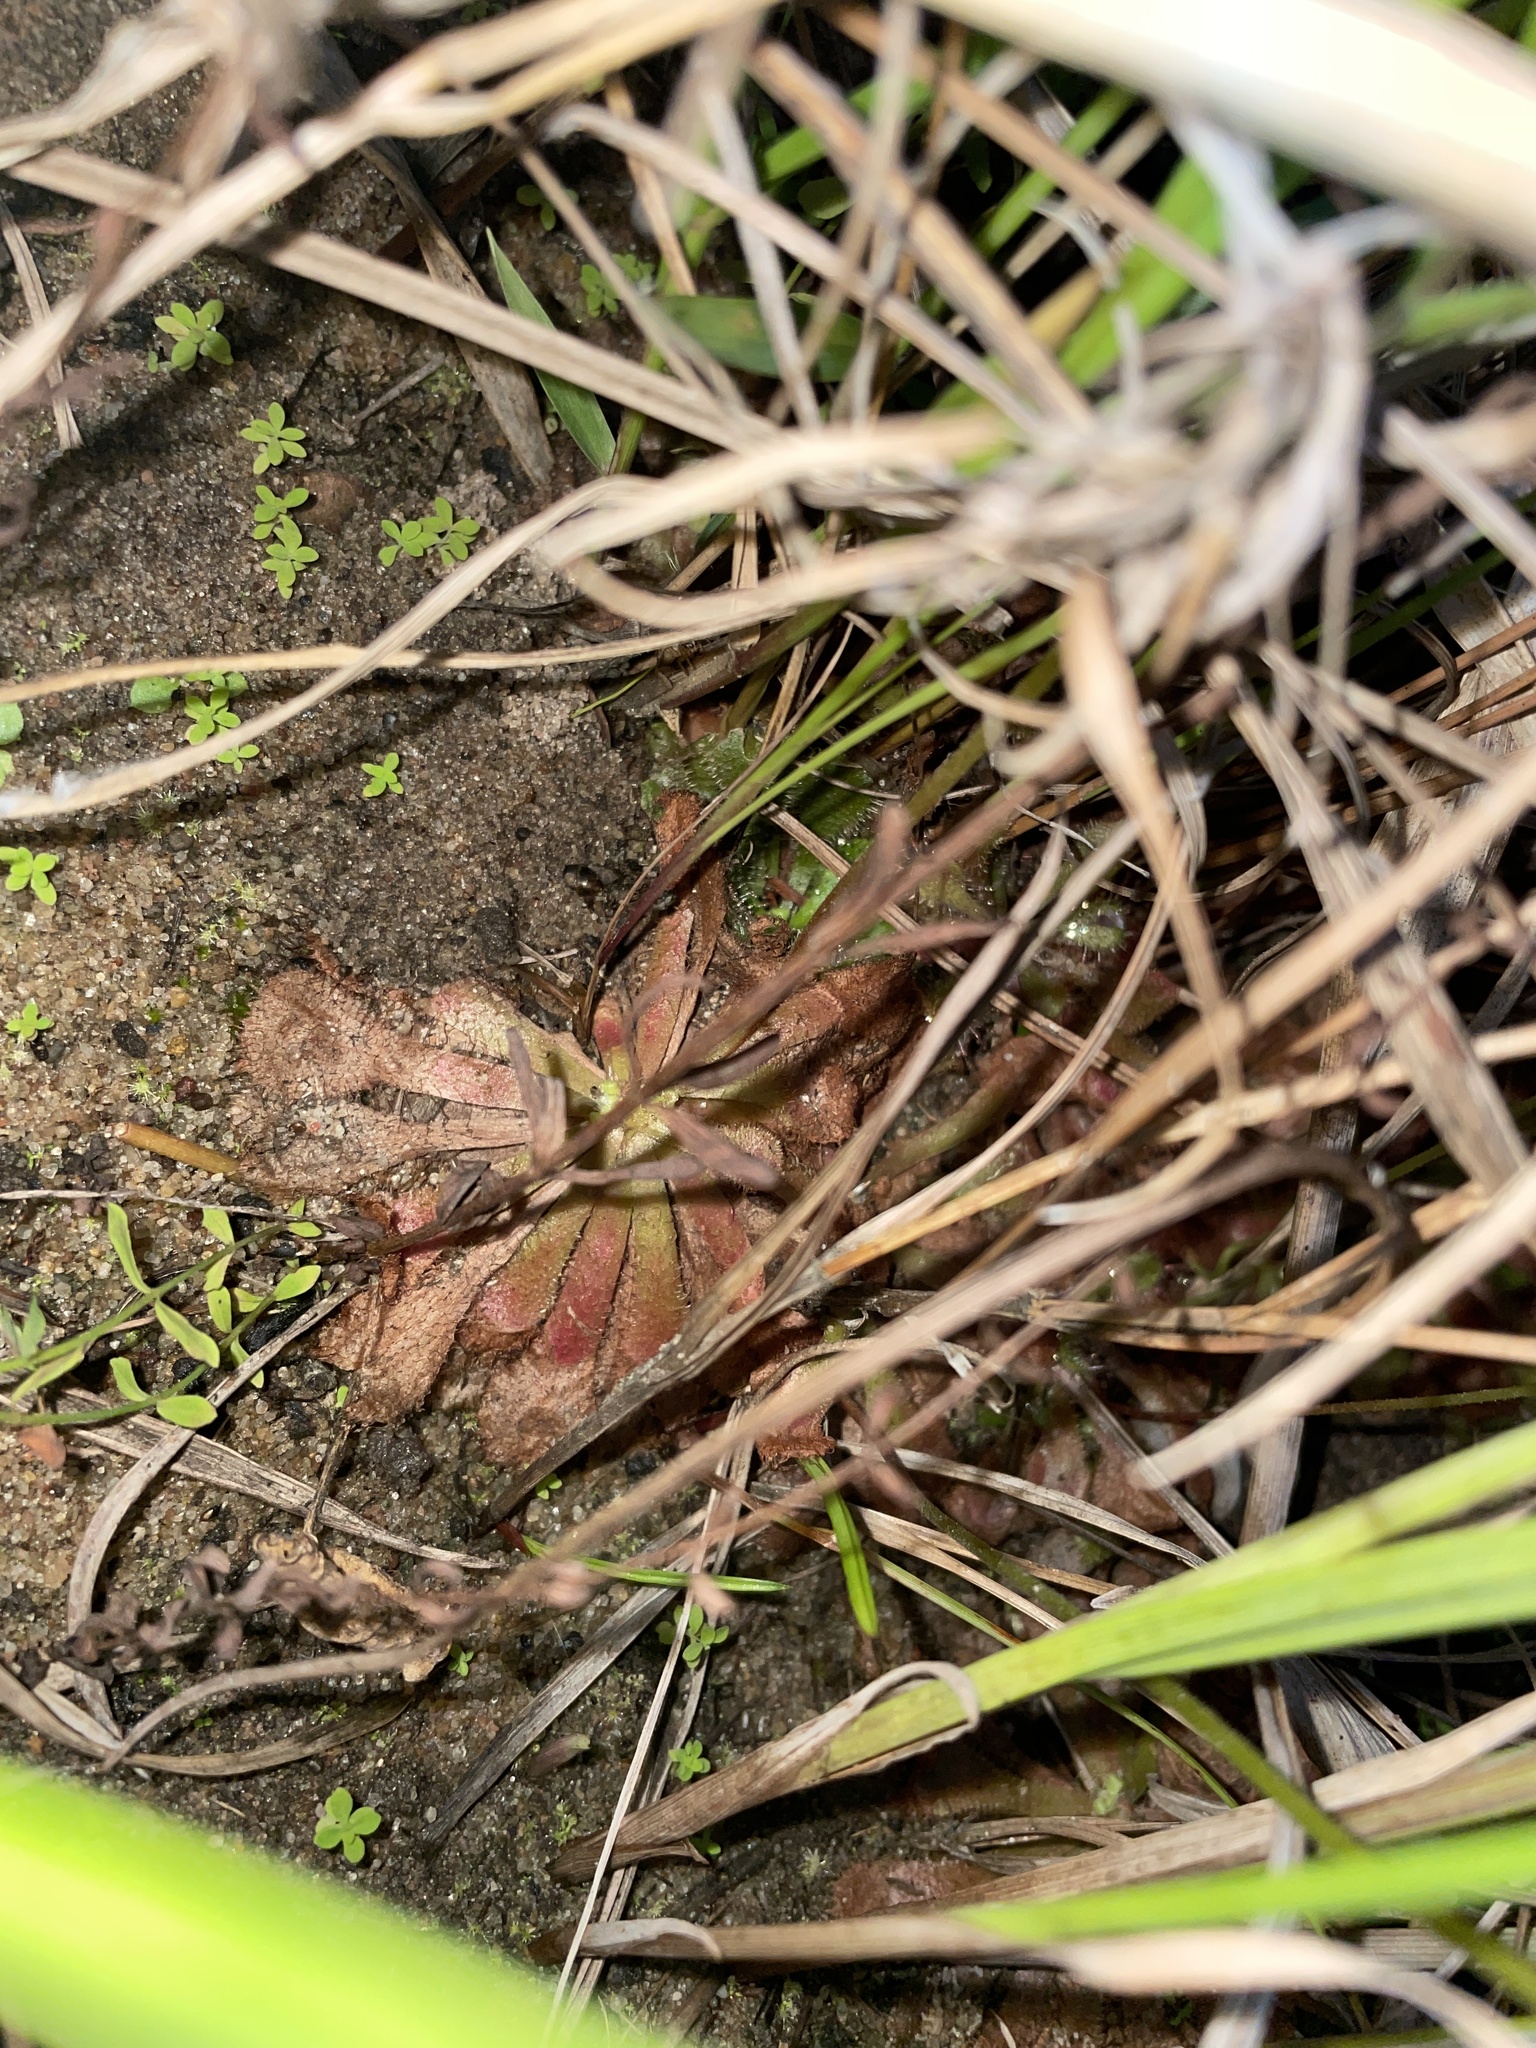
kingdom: Plantae
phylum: Tracheophyta
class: Magnoliopsida
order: Caryophyllales
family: Droseraceae
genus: Drosera
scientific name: Drosera natalensis
